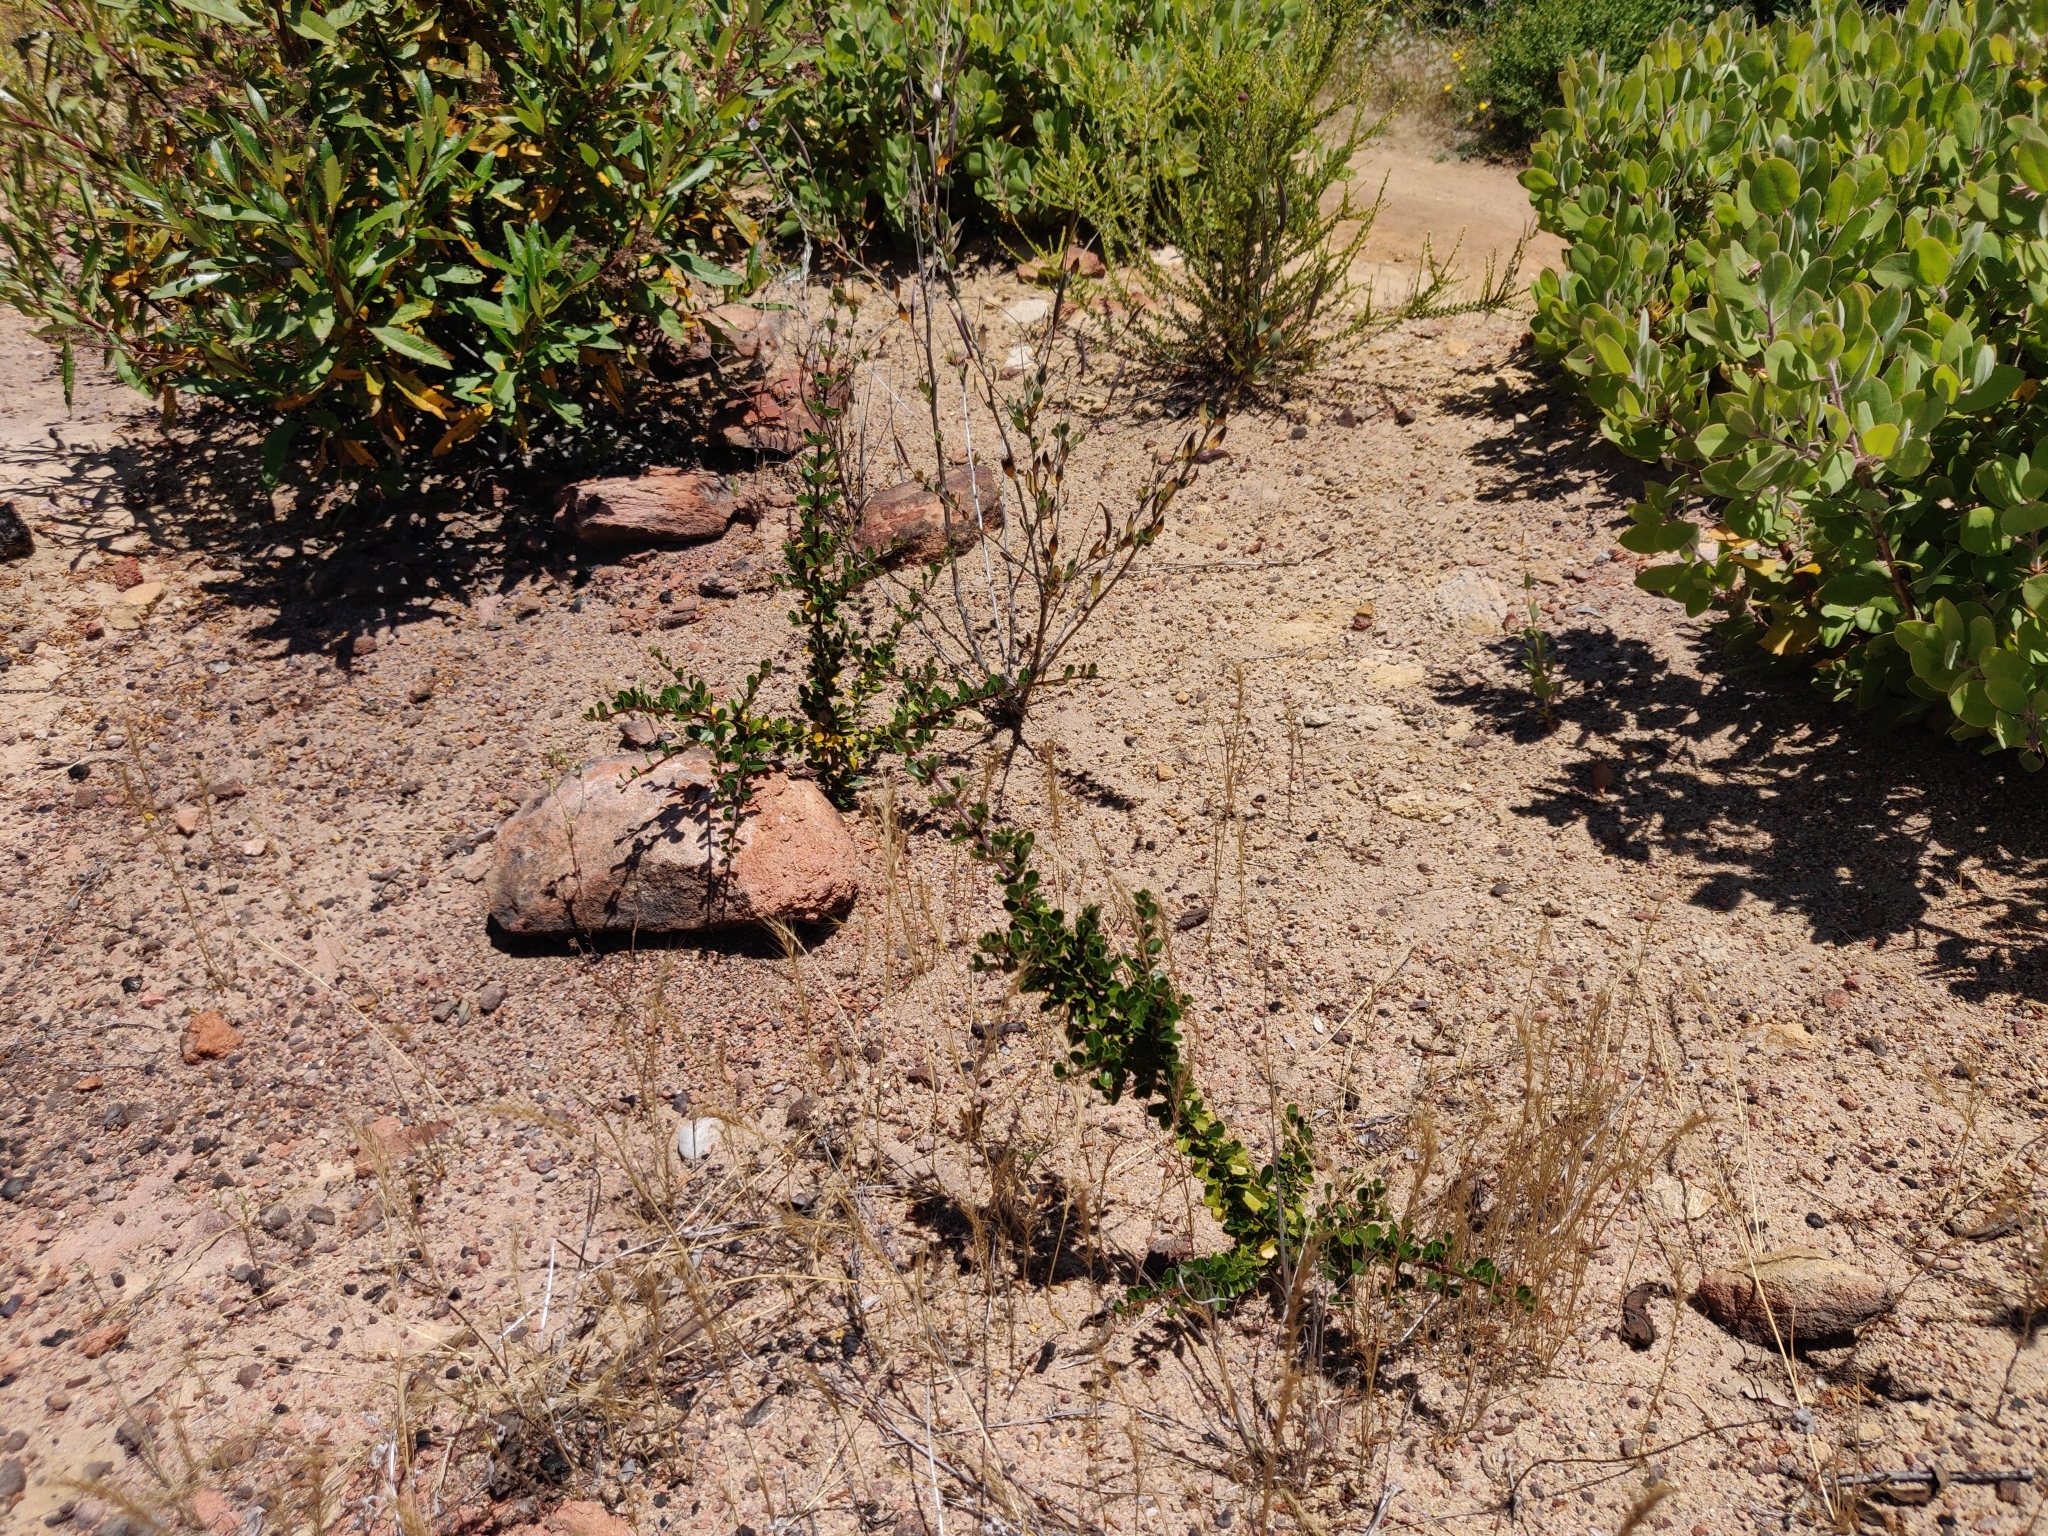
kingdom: Plantae
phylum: Tracheophyta
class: Magnoliopsida
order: Rosales
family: Rhamnaceae
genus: Ceanothus
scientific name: Ceanothus cuneatus
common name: Cuneate ceanothus
